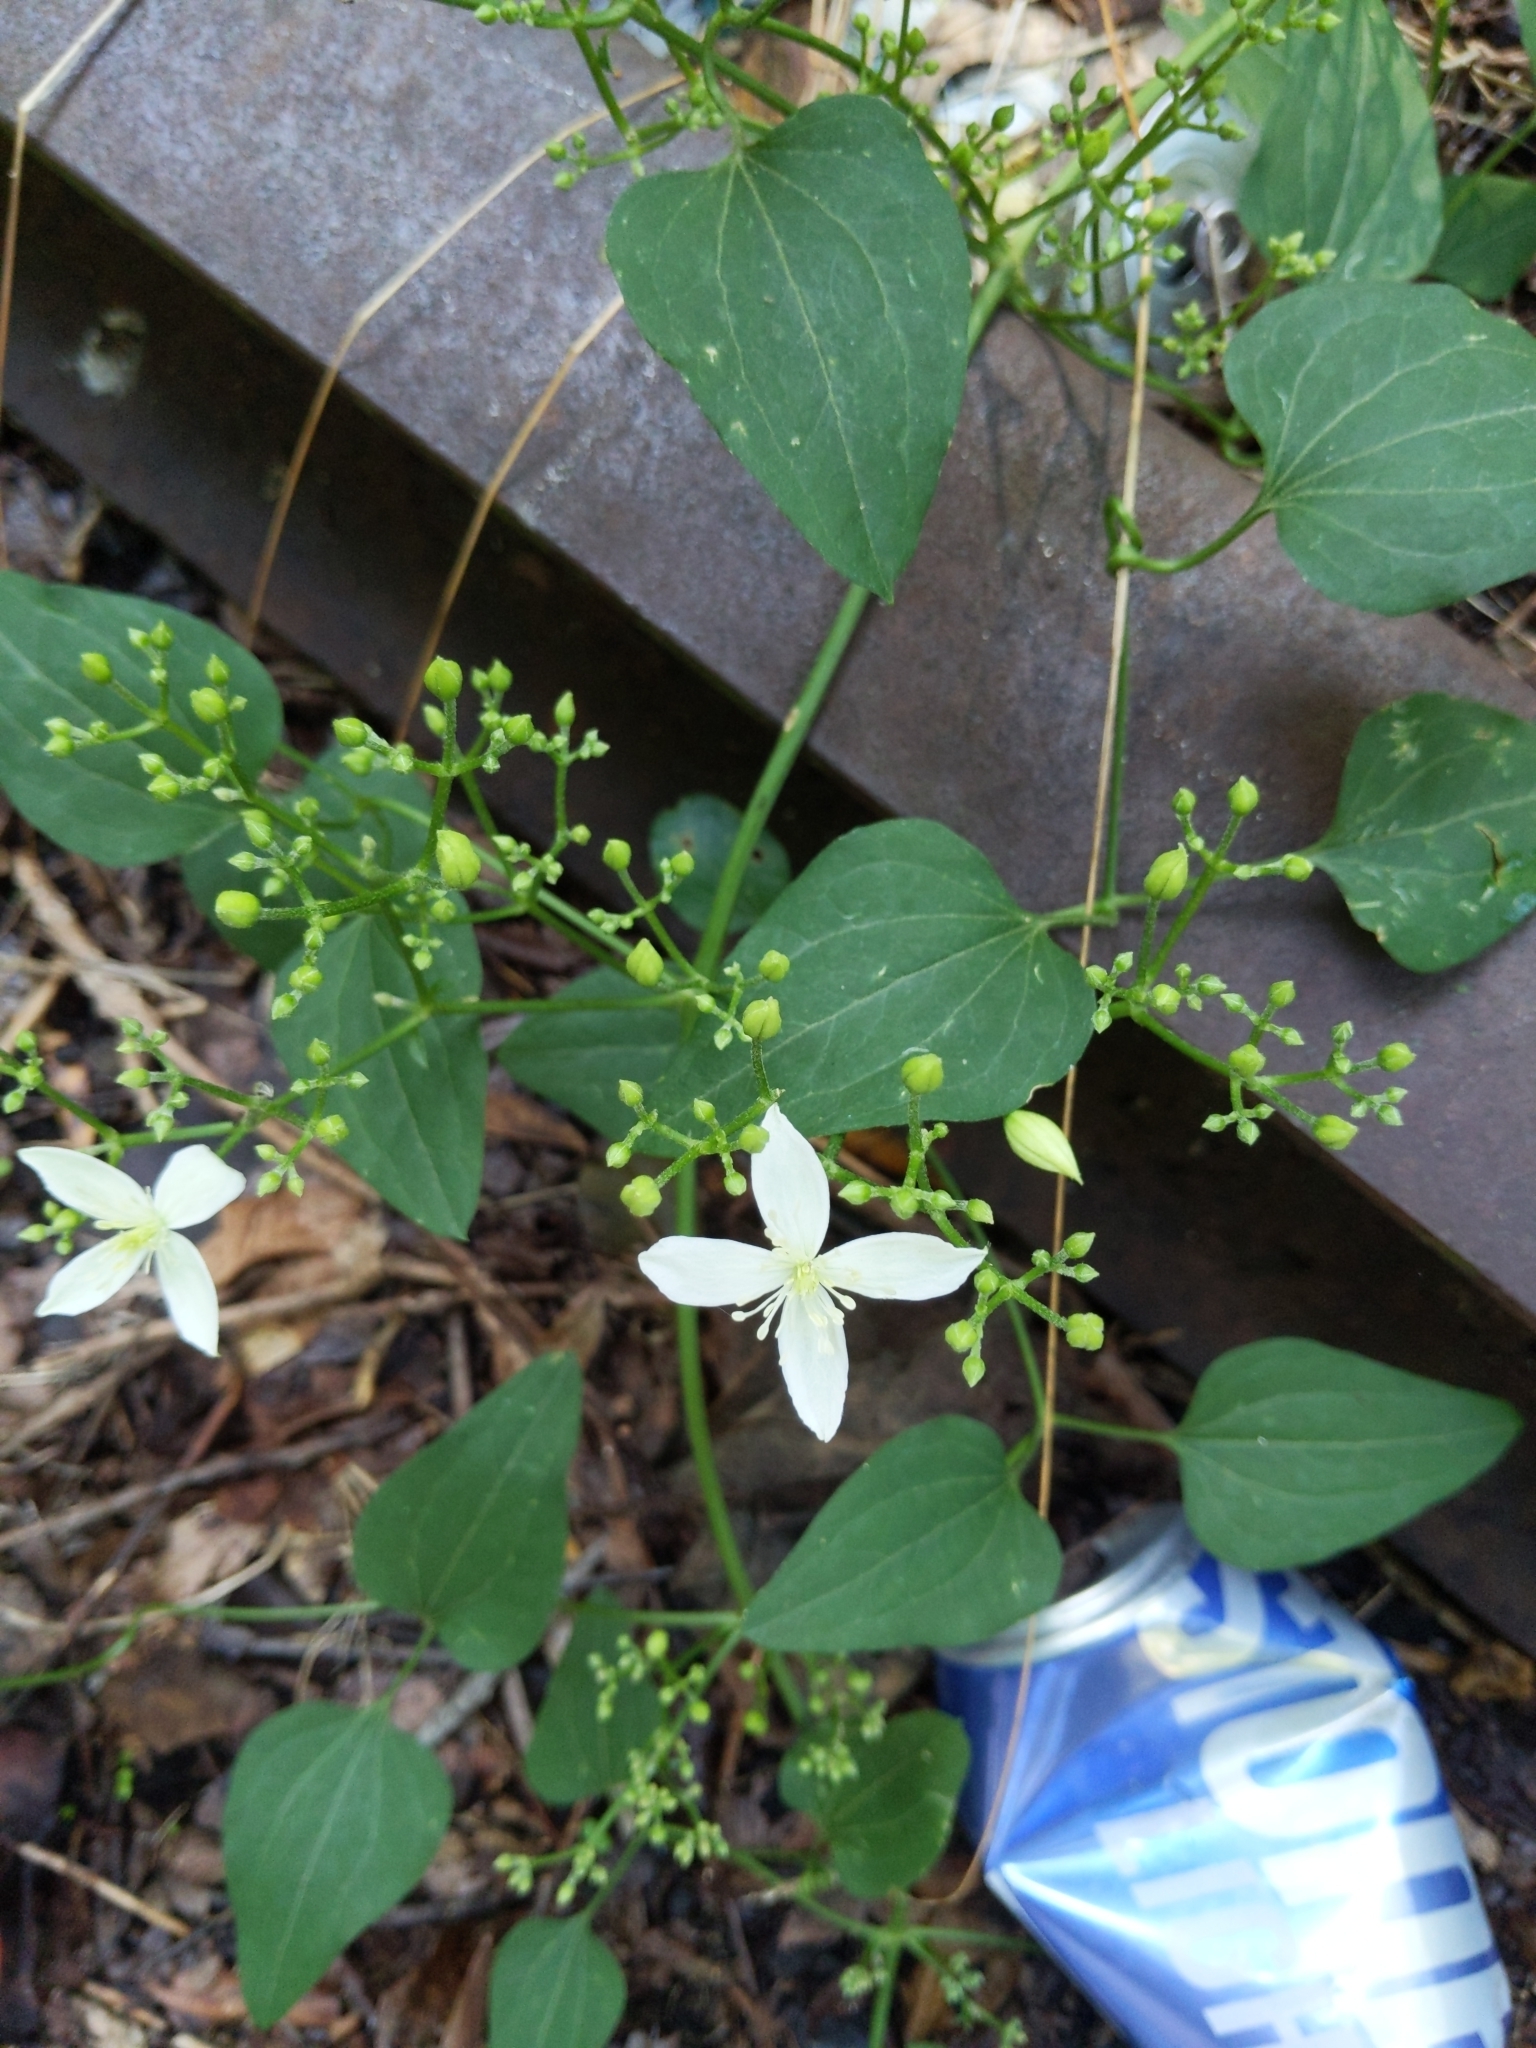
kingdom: Plantae
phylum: Tracheophyta
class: Magnoliopsida
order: Ranunculales
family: Ranunculaceae
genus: Clematis
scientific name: Clematis terniflora
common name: Sweet autumn clematis
